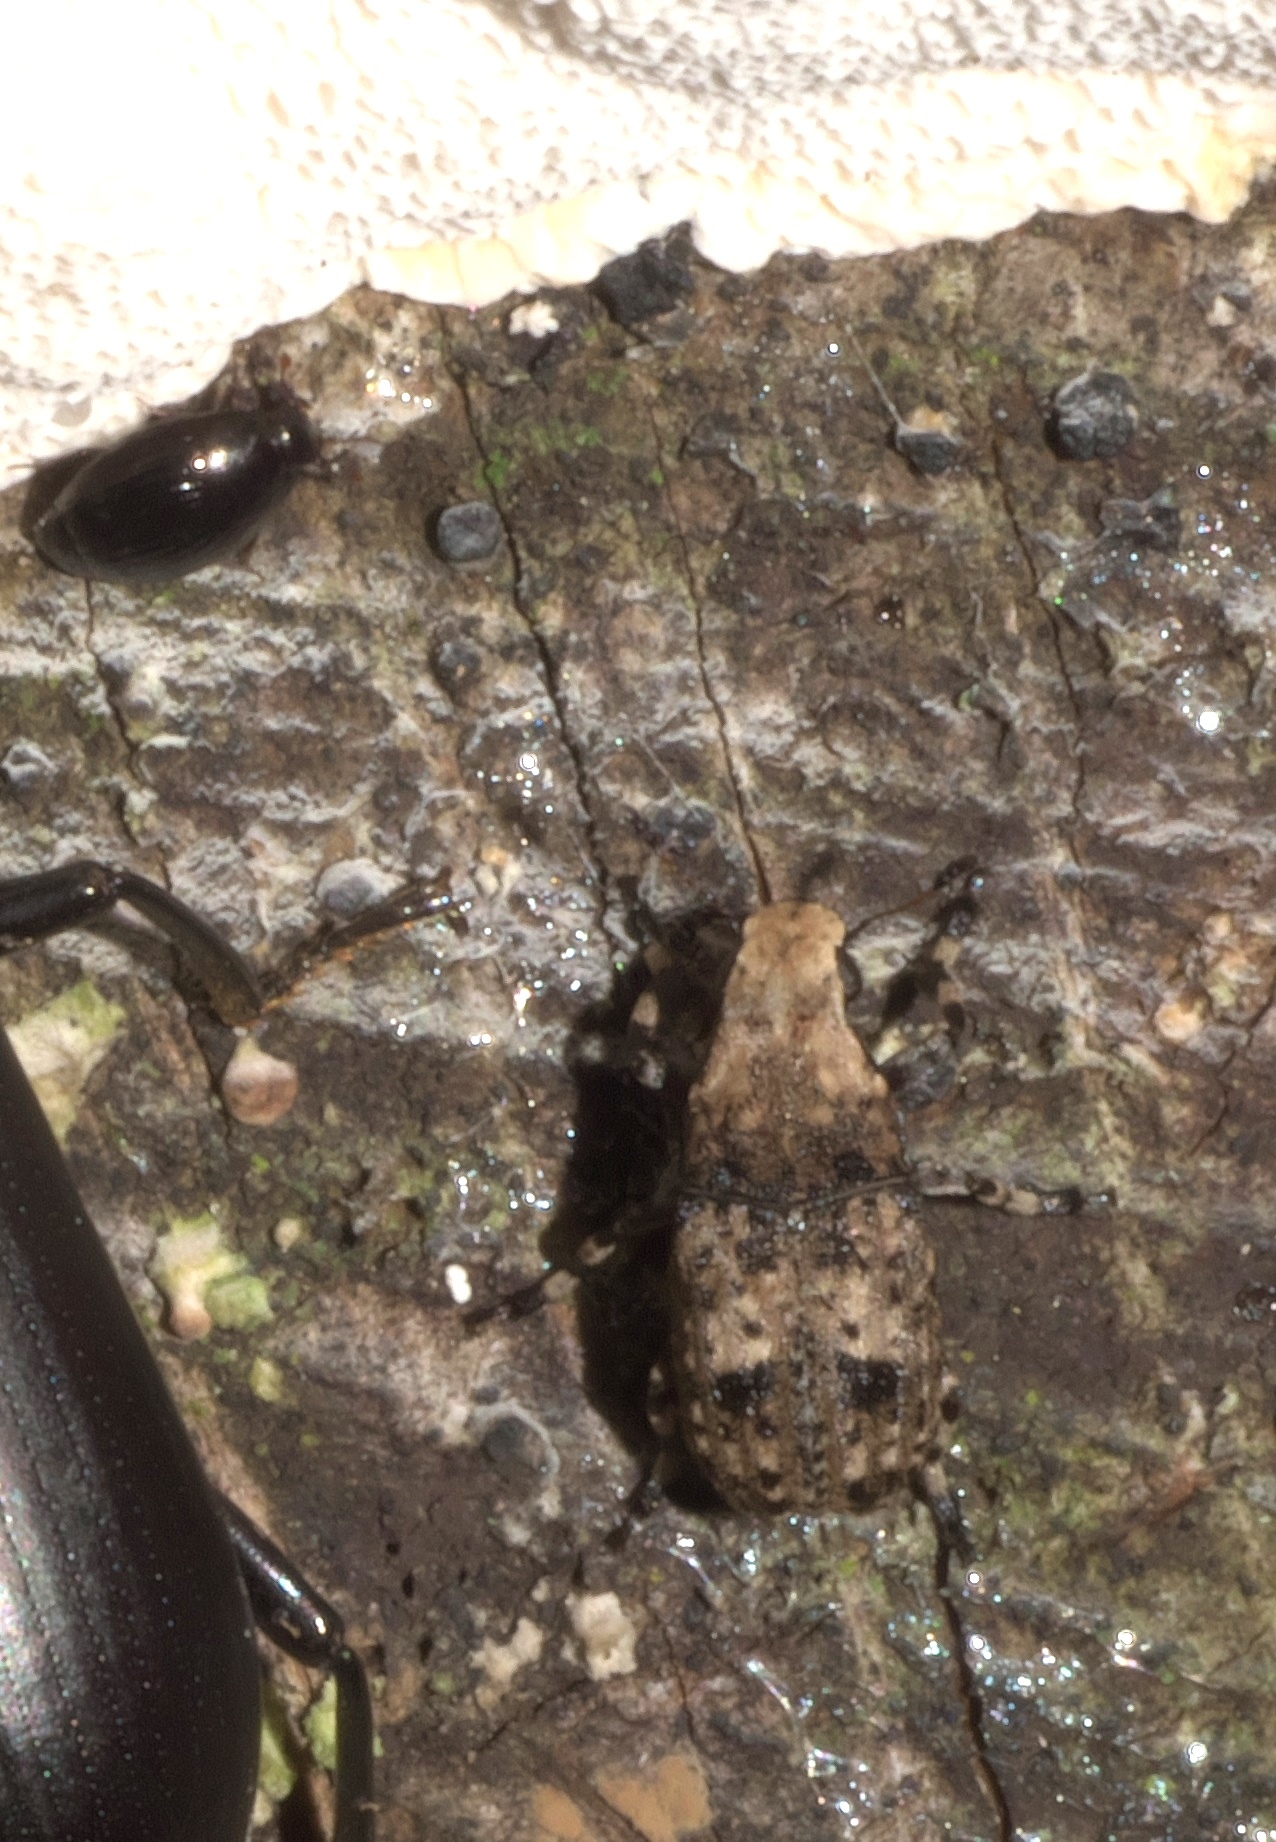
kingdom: Animalia
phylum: Arthropoda
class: Insecta
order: Coleoptera
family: Anthribidae
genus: Euparius
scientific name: Euparius marmoreus
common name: Marbled fungus weevil
